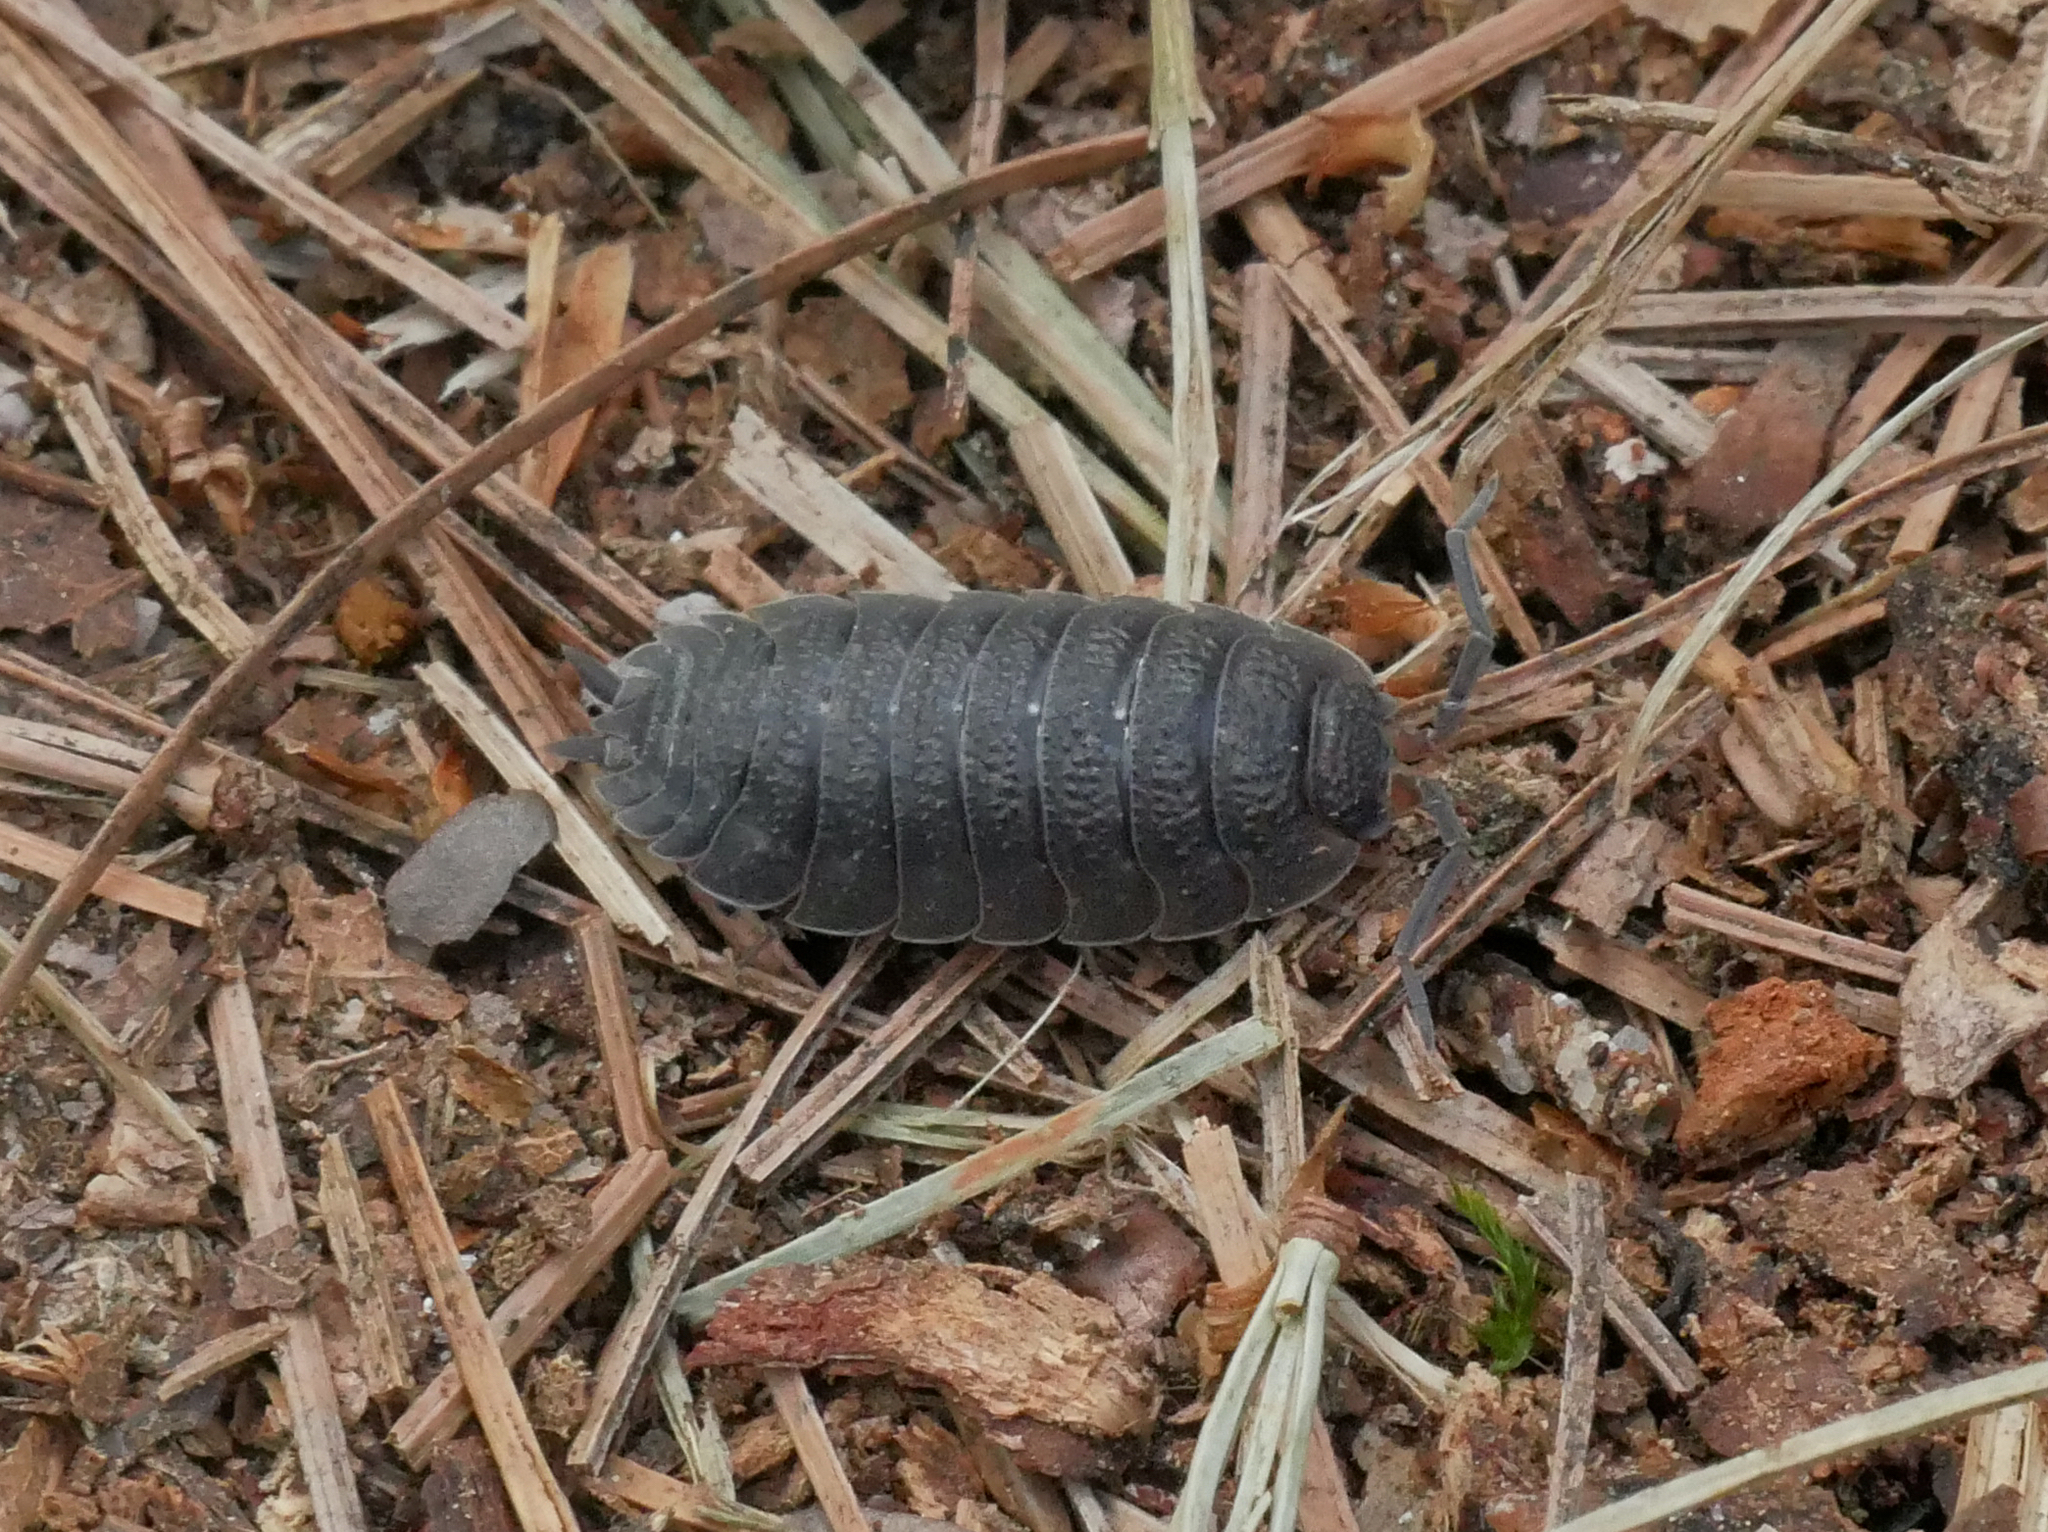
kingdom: Animalia
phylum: Arthropoda
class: Malacostraca
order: Isopoda
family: Porcellionidae
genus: Porcellio
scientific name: Porcellio scaber
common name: Common rough woodlouse
